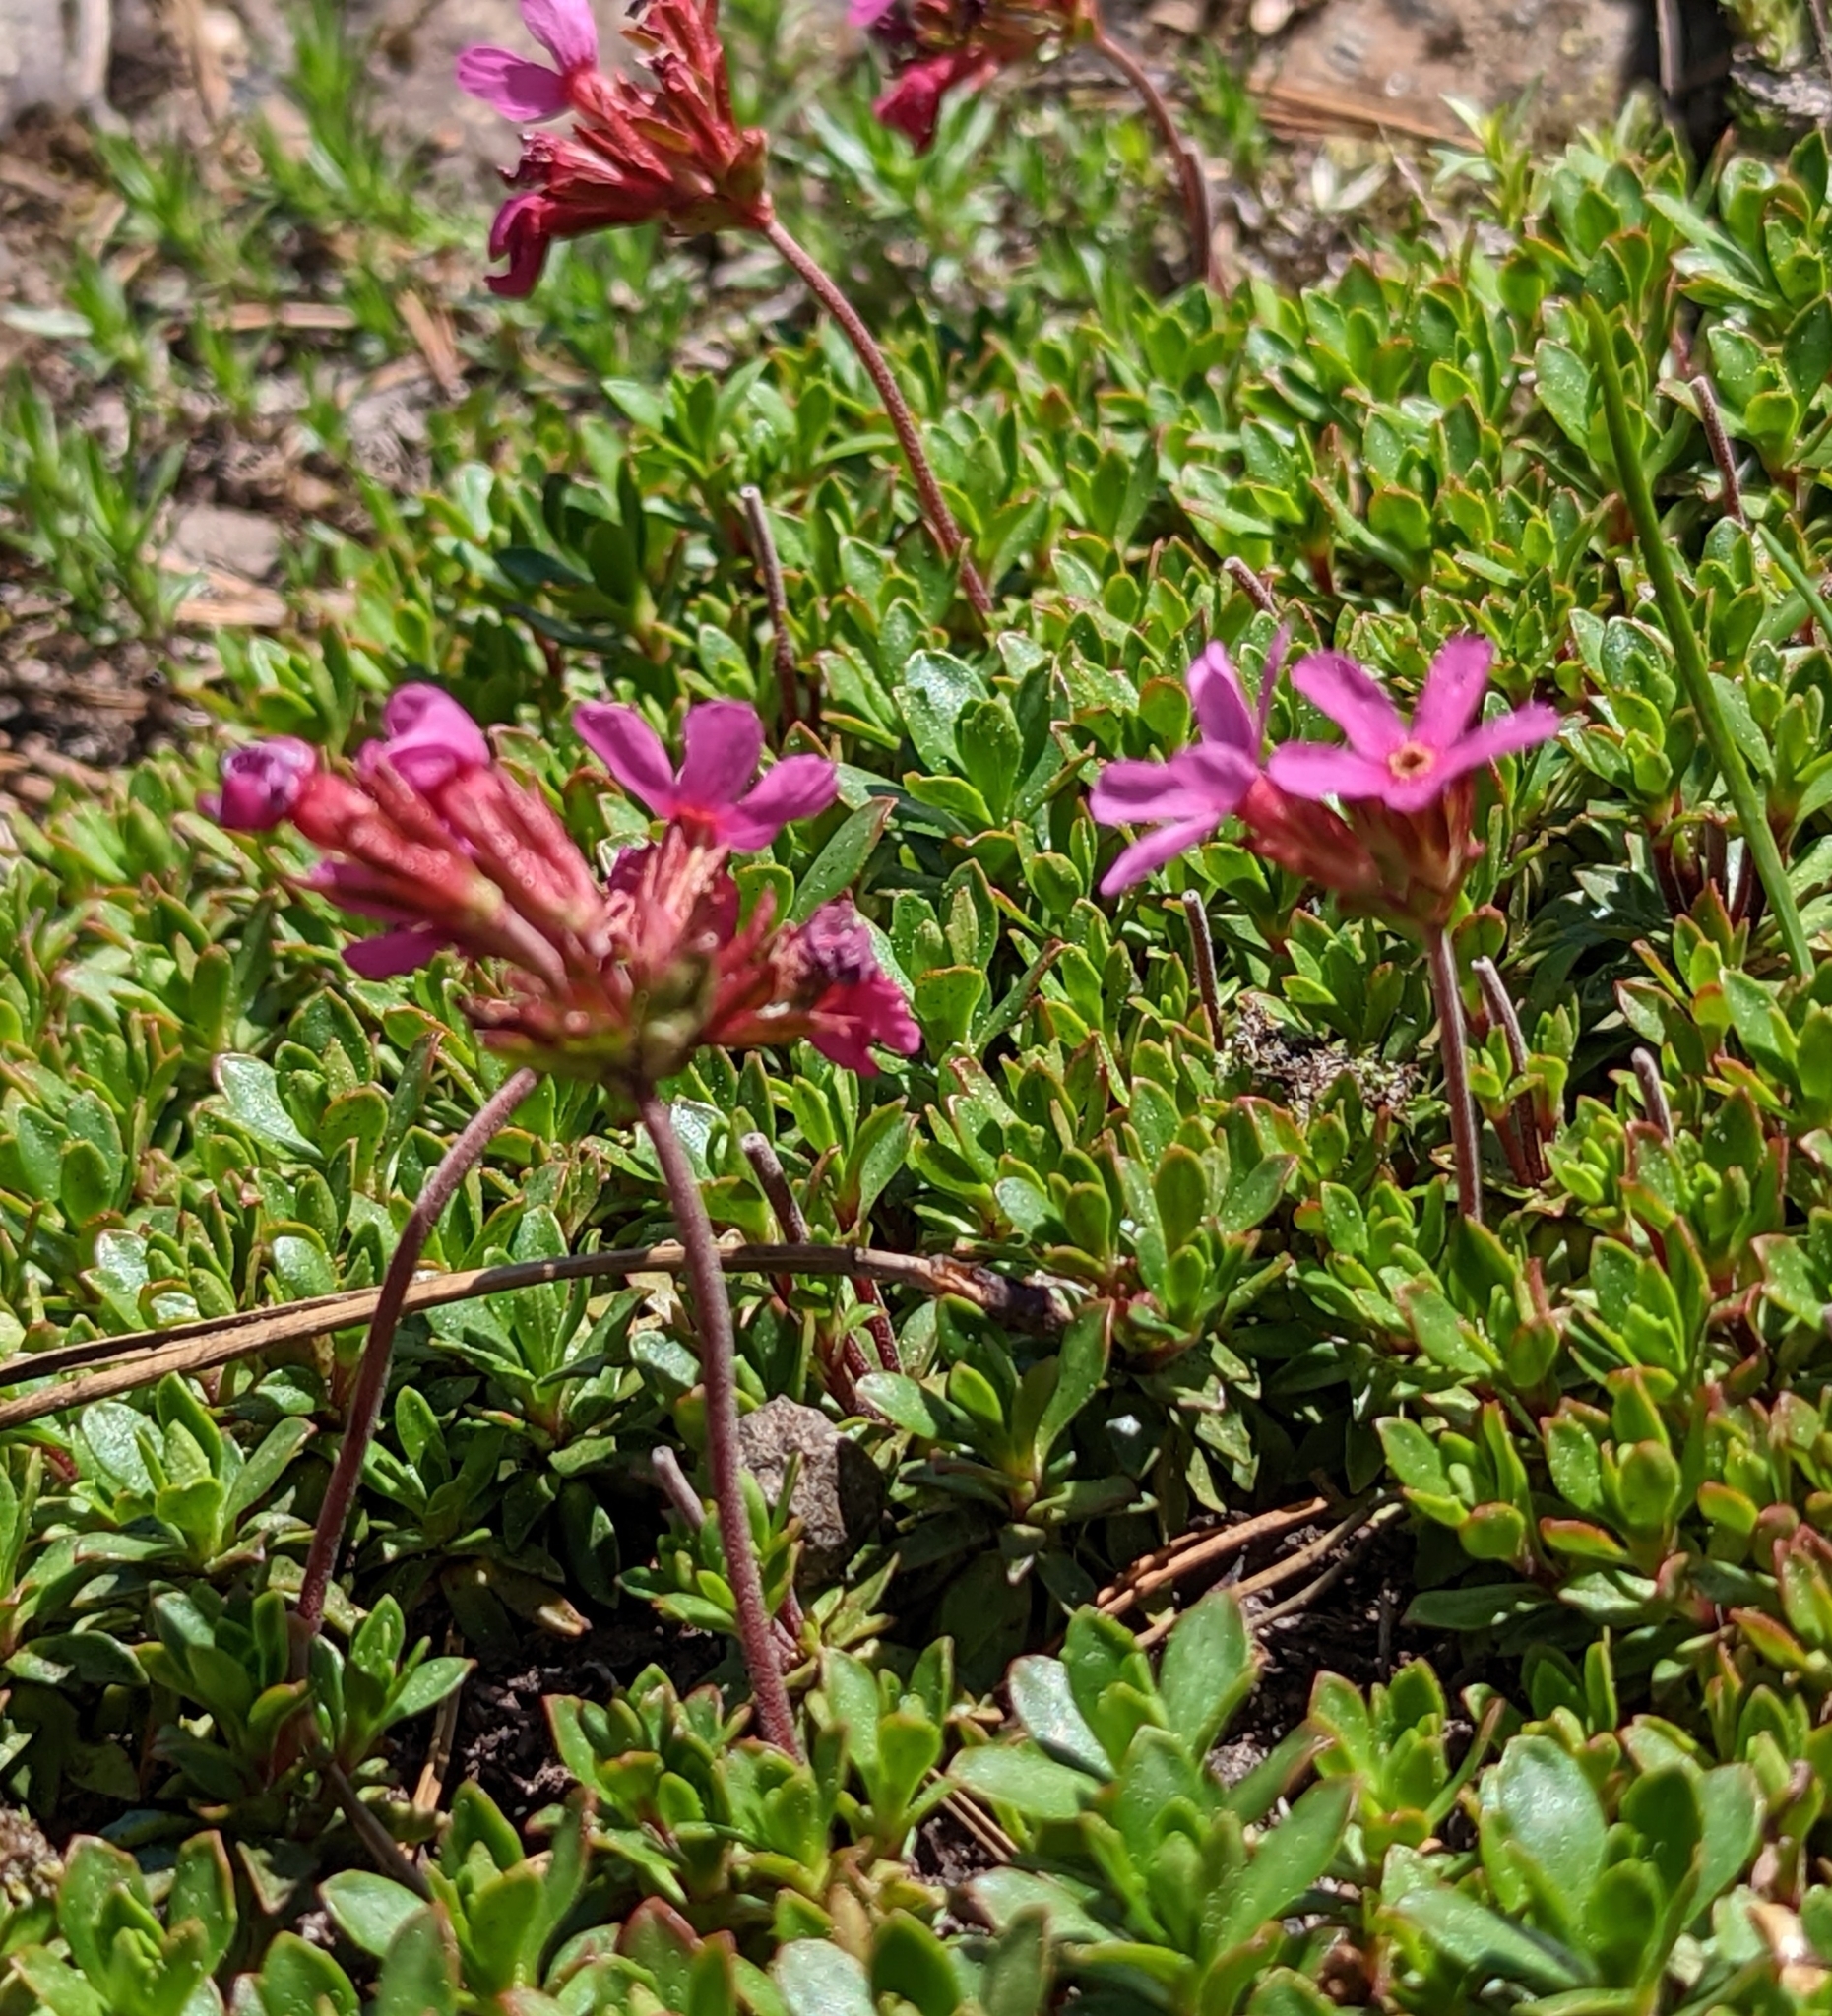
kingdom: Plantae
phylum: Tracheophyta
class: Magnoliopsida
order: Ericales
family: Primulaceae
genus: Androsace
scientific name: Androsace laevigata
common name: Cliff dwarf-primrose
